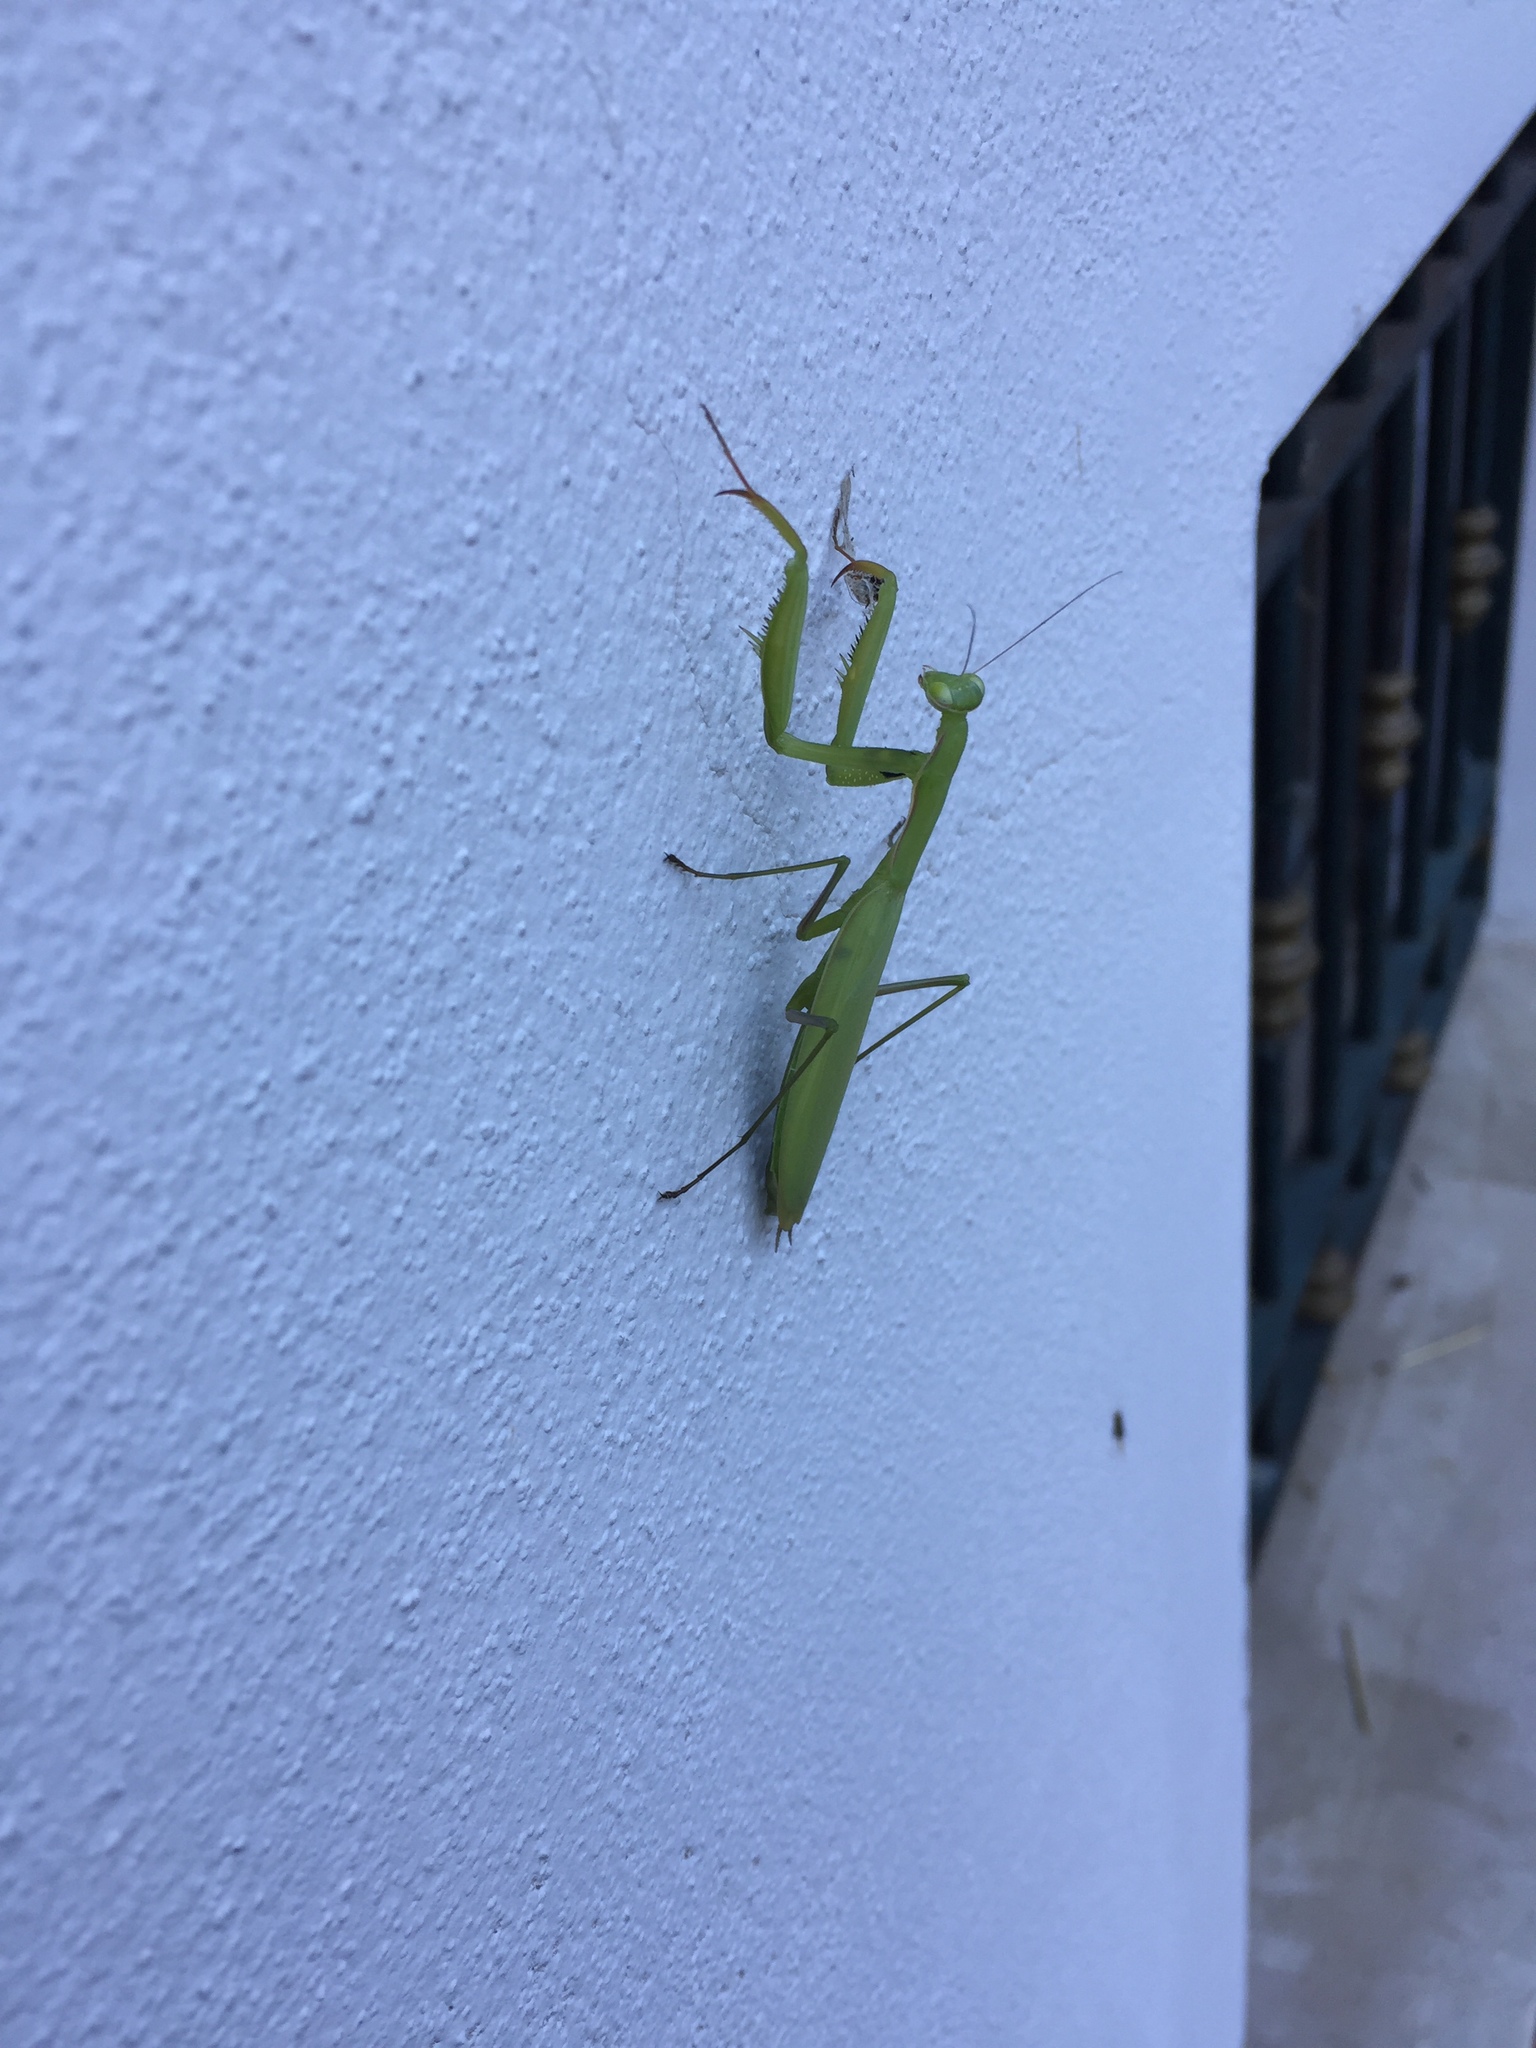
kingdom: Animalia
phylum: Arthropoda
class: Insecta
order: Mantodea
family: Mantidae
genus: Mantis
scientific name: Mantis religiosa
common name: Praying mantis
